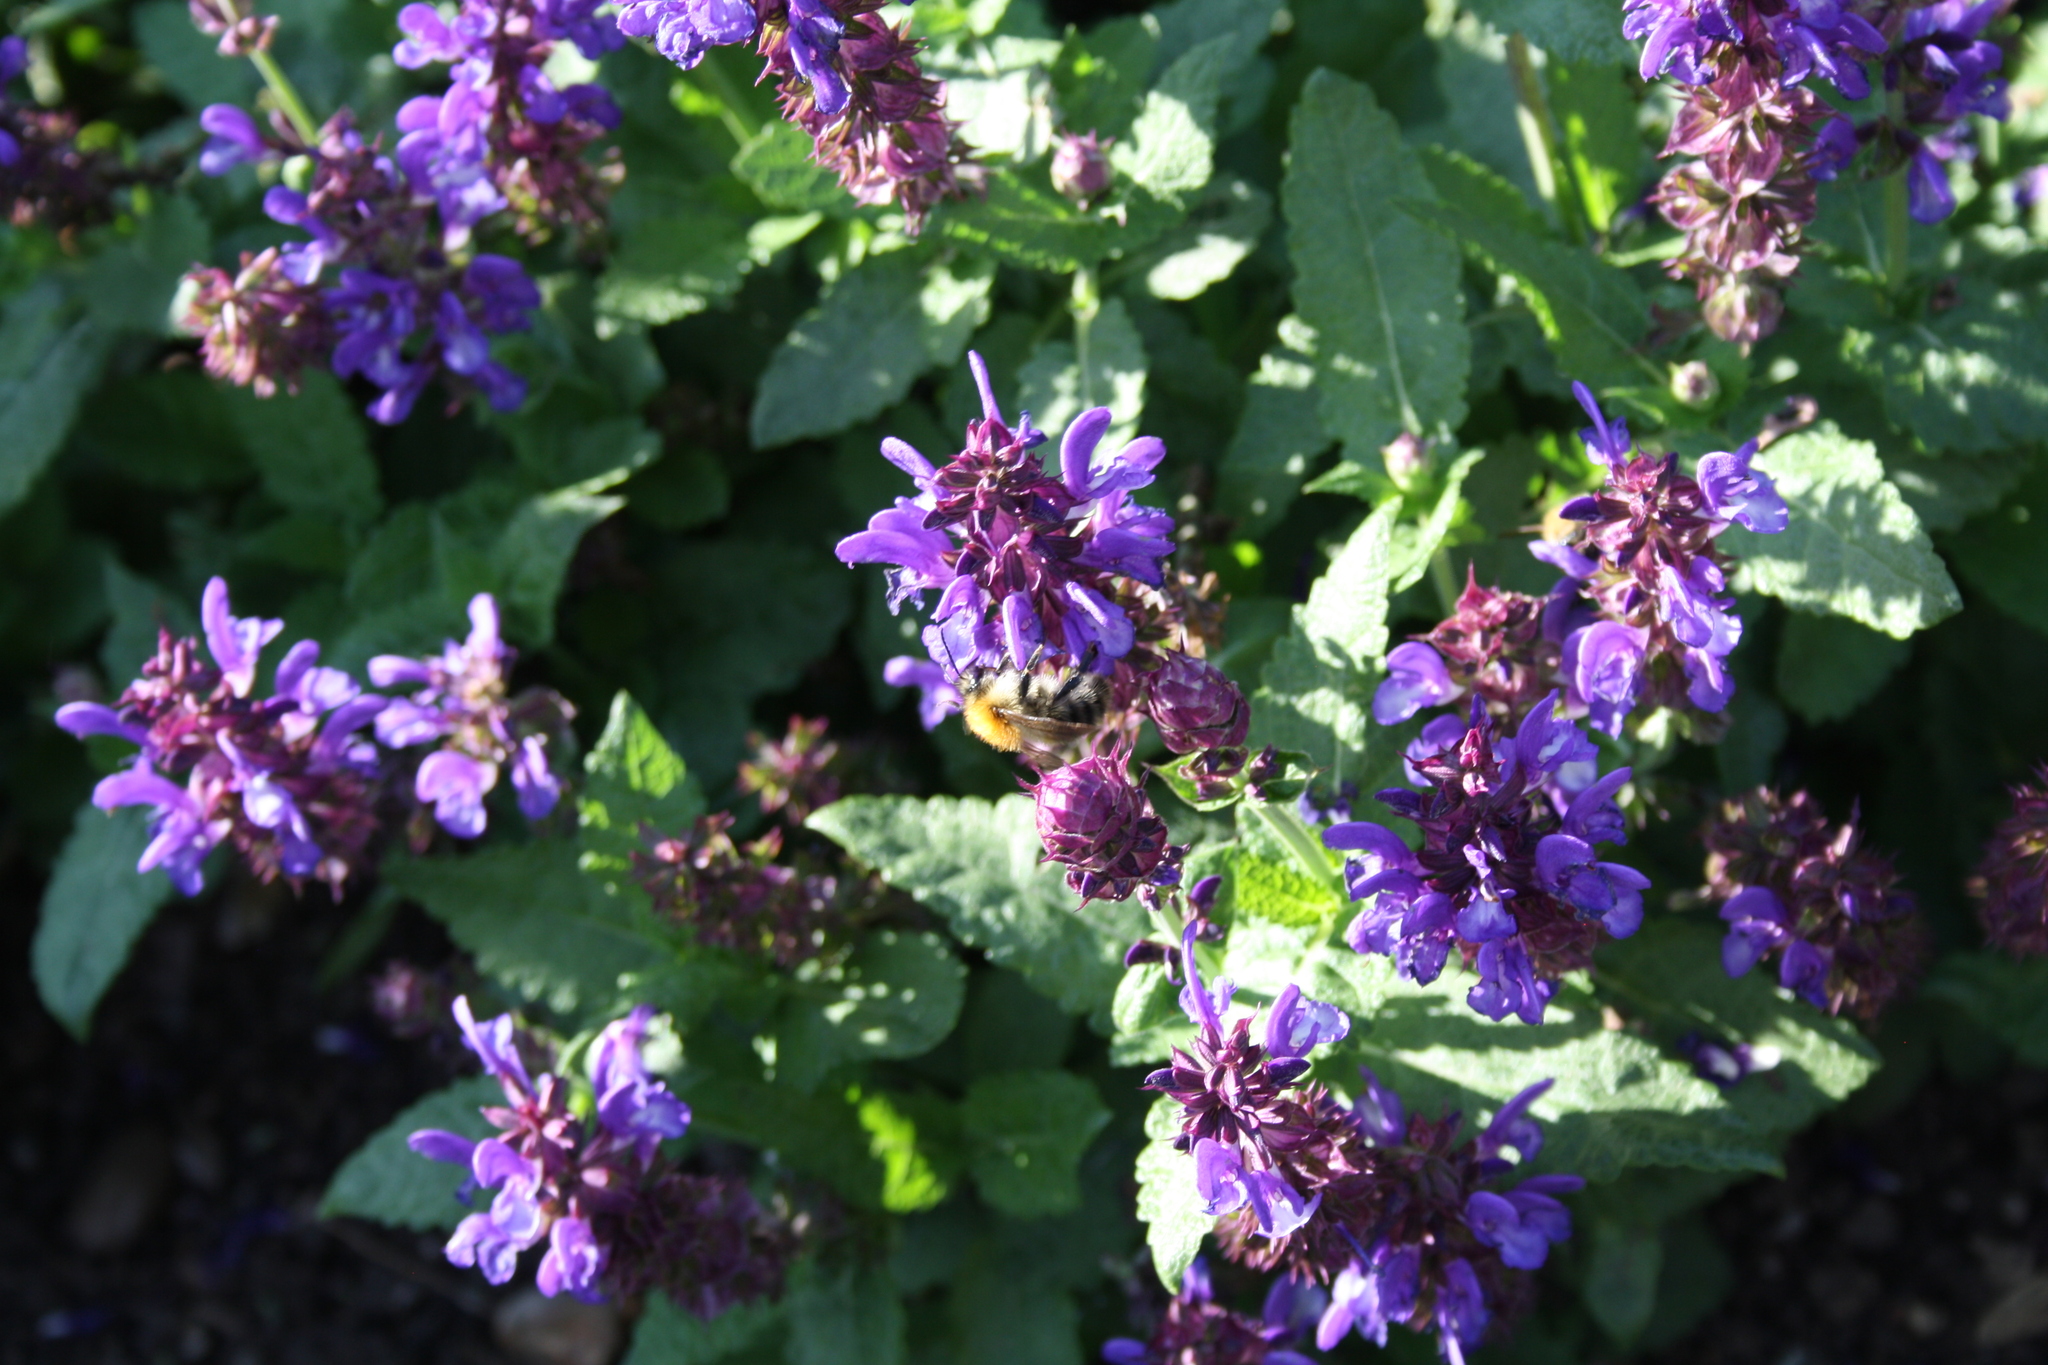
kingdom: Animalia
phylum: Arthropoda
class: Insecta
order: Hymenoptera
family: Apidae
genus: Bombus
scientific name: Bombus pascuorum
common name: Common carder bee
